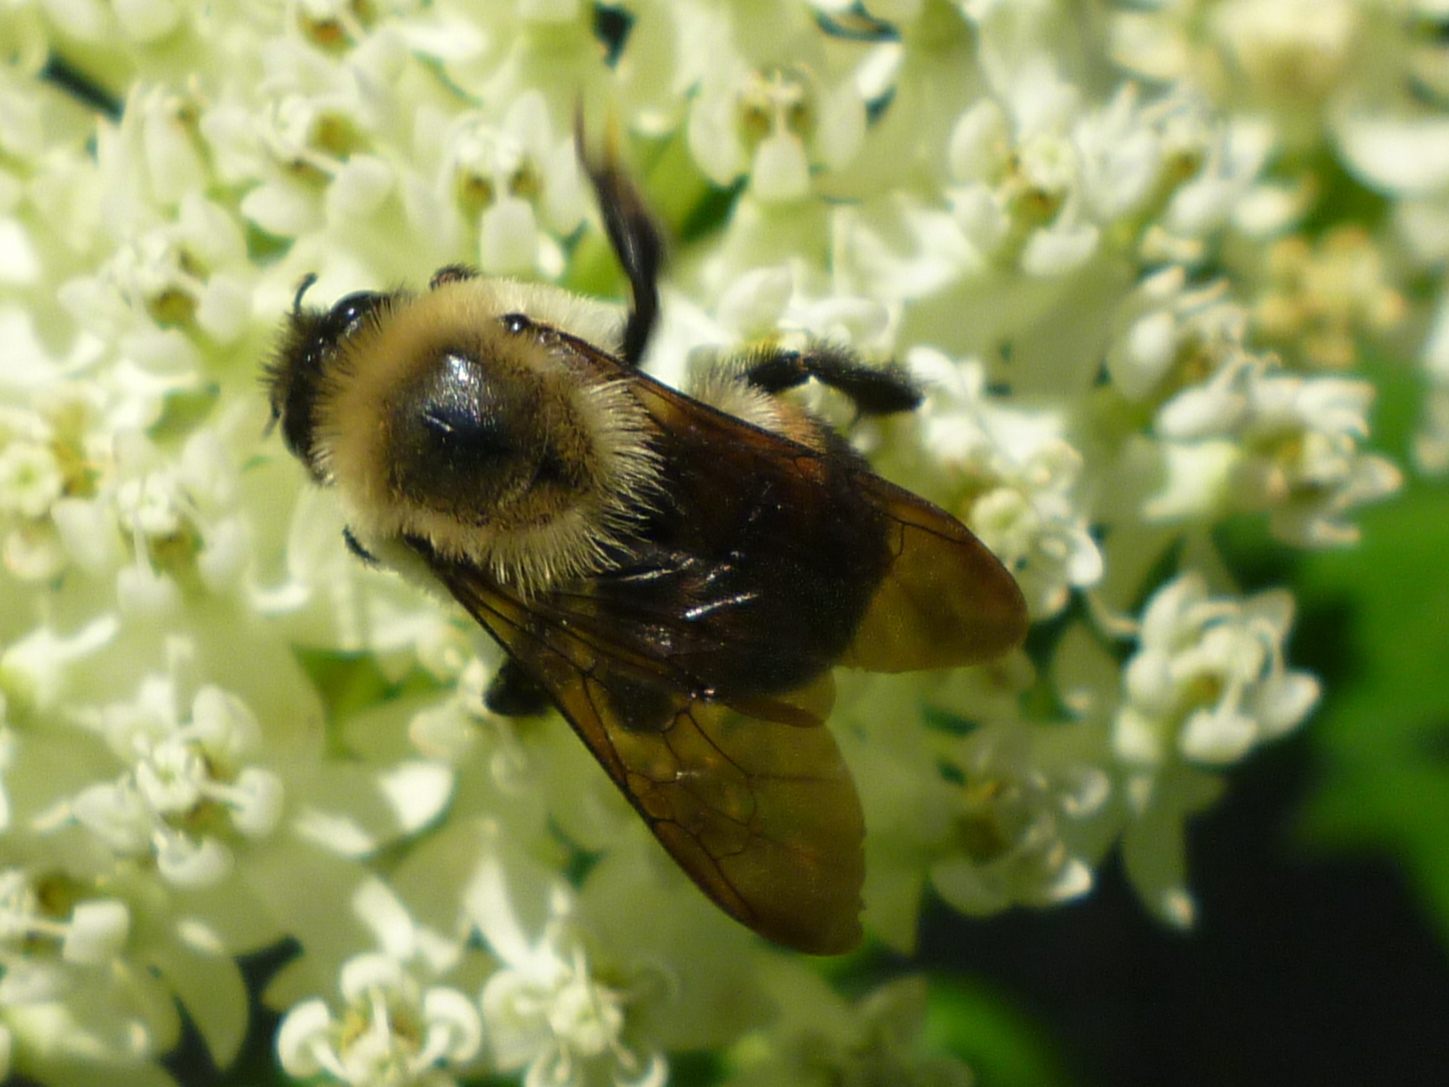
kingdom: Animalia
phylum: Arthropoda
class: Insecta
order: Hymenoptera
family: Apidae
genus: Bombus
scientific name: Bombus griseocollis
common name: Brown-belted bumble bee
